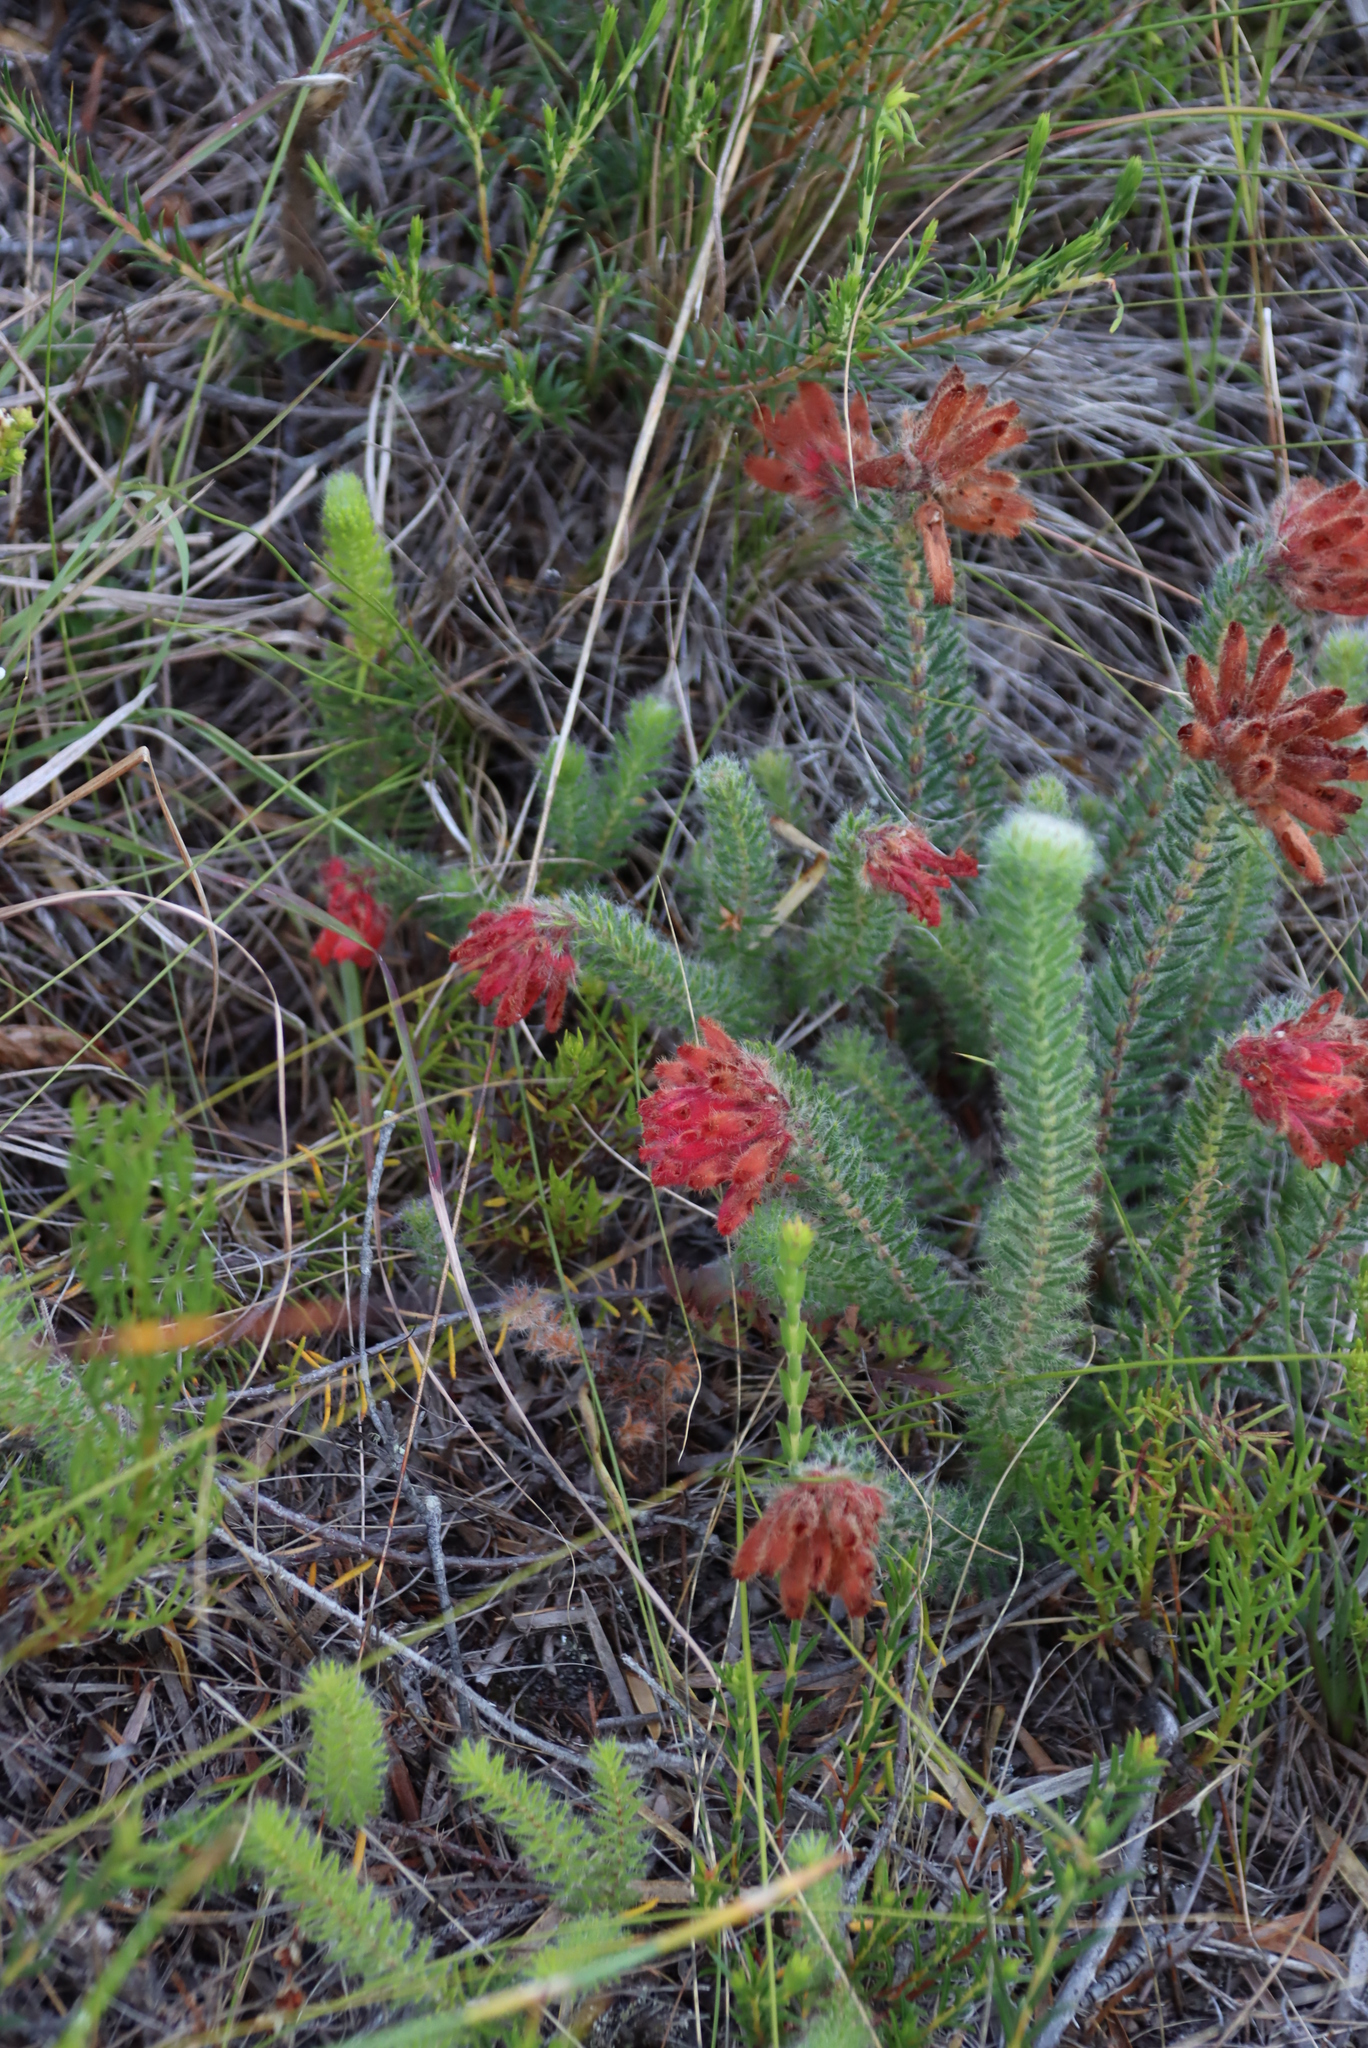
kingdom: Plantae
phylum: Tracheophyta
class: Magnoliopsida
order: Ericales
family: Ericaceae
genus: Erica
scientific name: Erica cerinthoides
